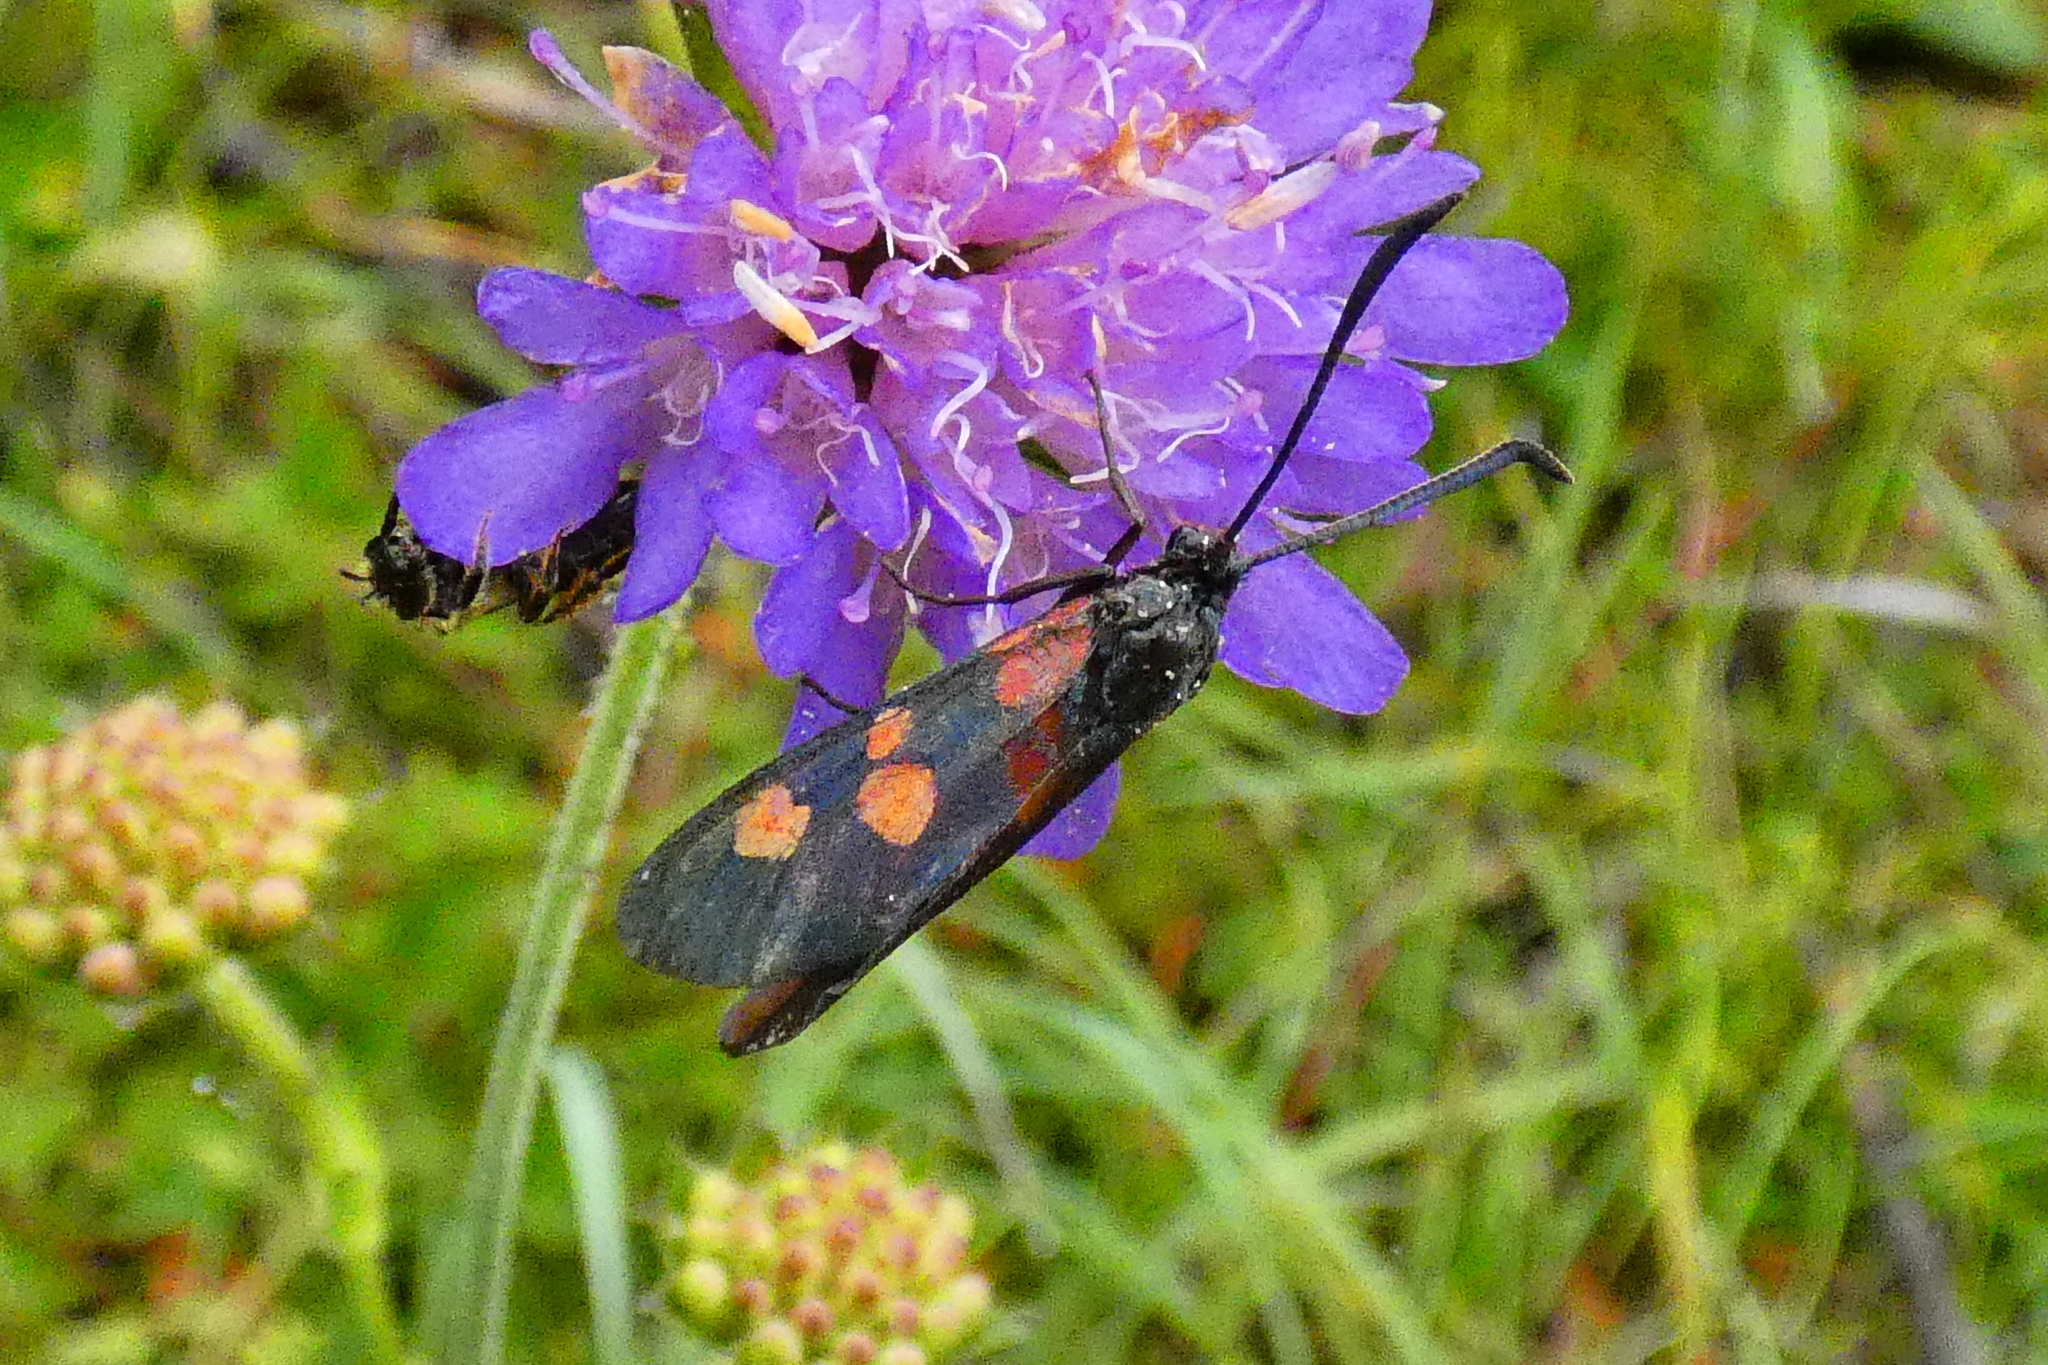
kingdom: Animalia
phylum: Arthropoda
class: Insecta
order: Lepidoptera
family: Zygaenidae
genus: Zygaena
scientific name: Zygaena lonicerae
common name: Narrow-bordered five-spot burnet
